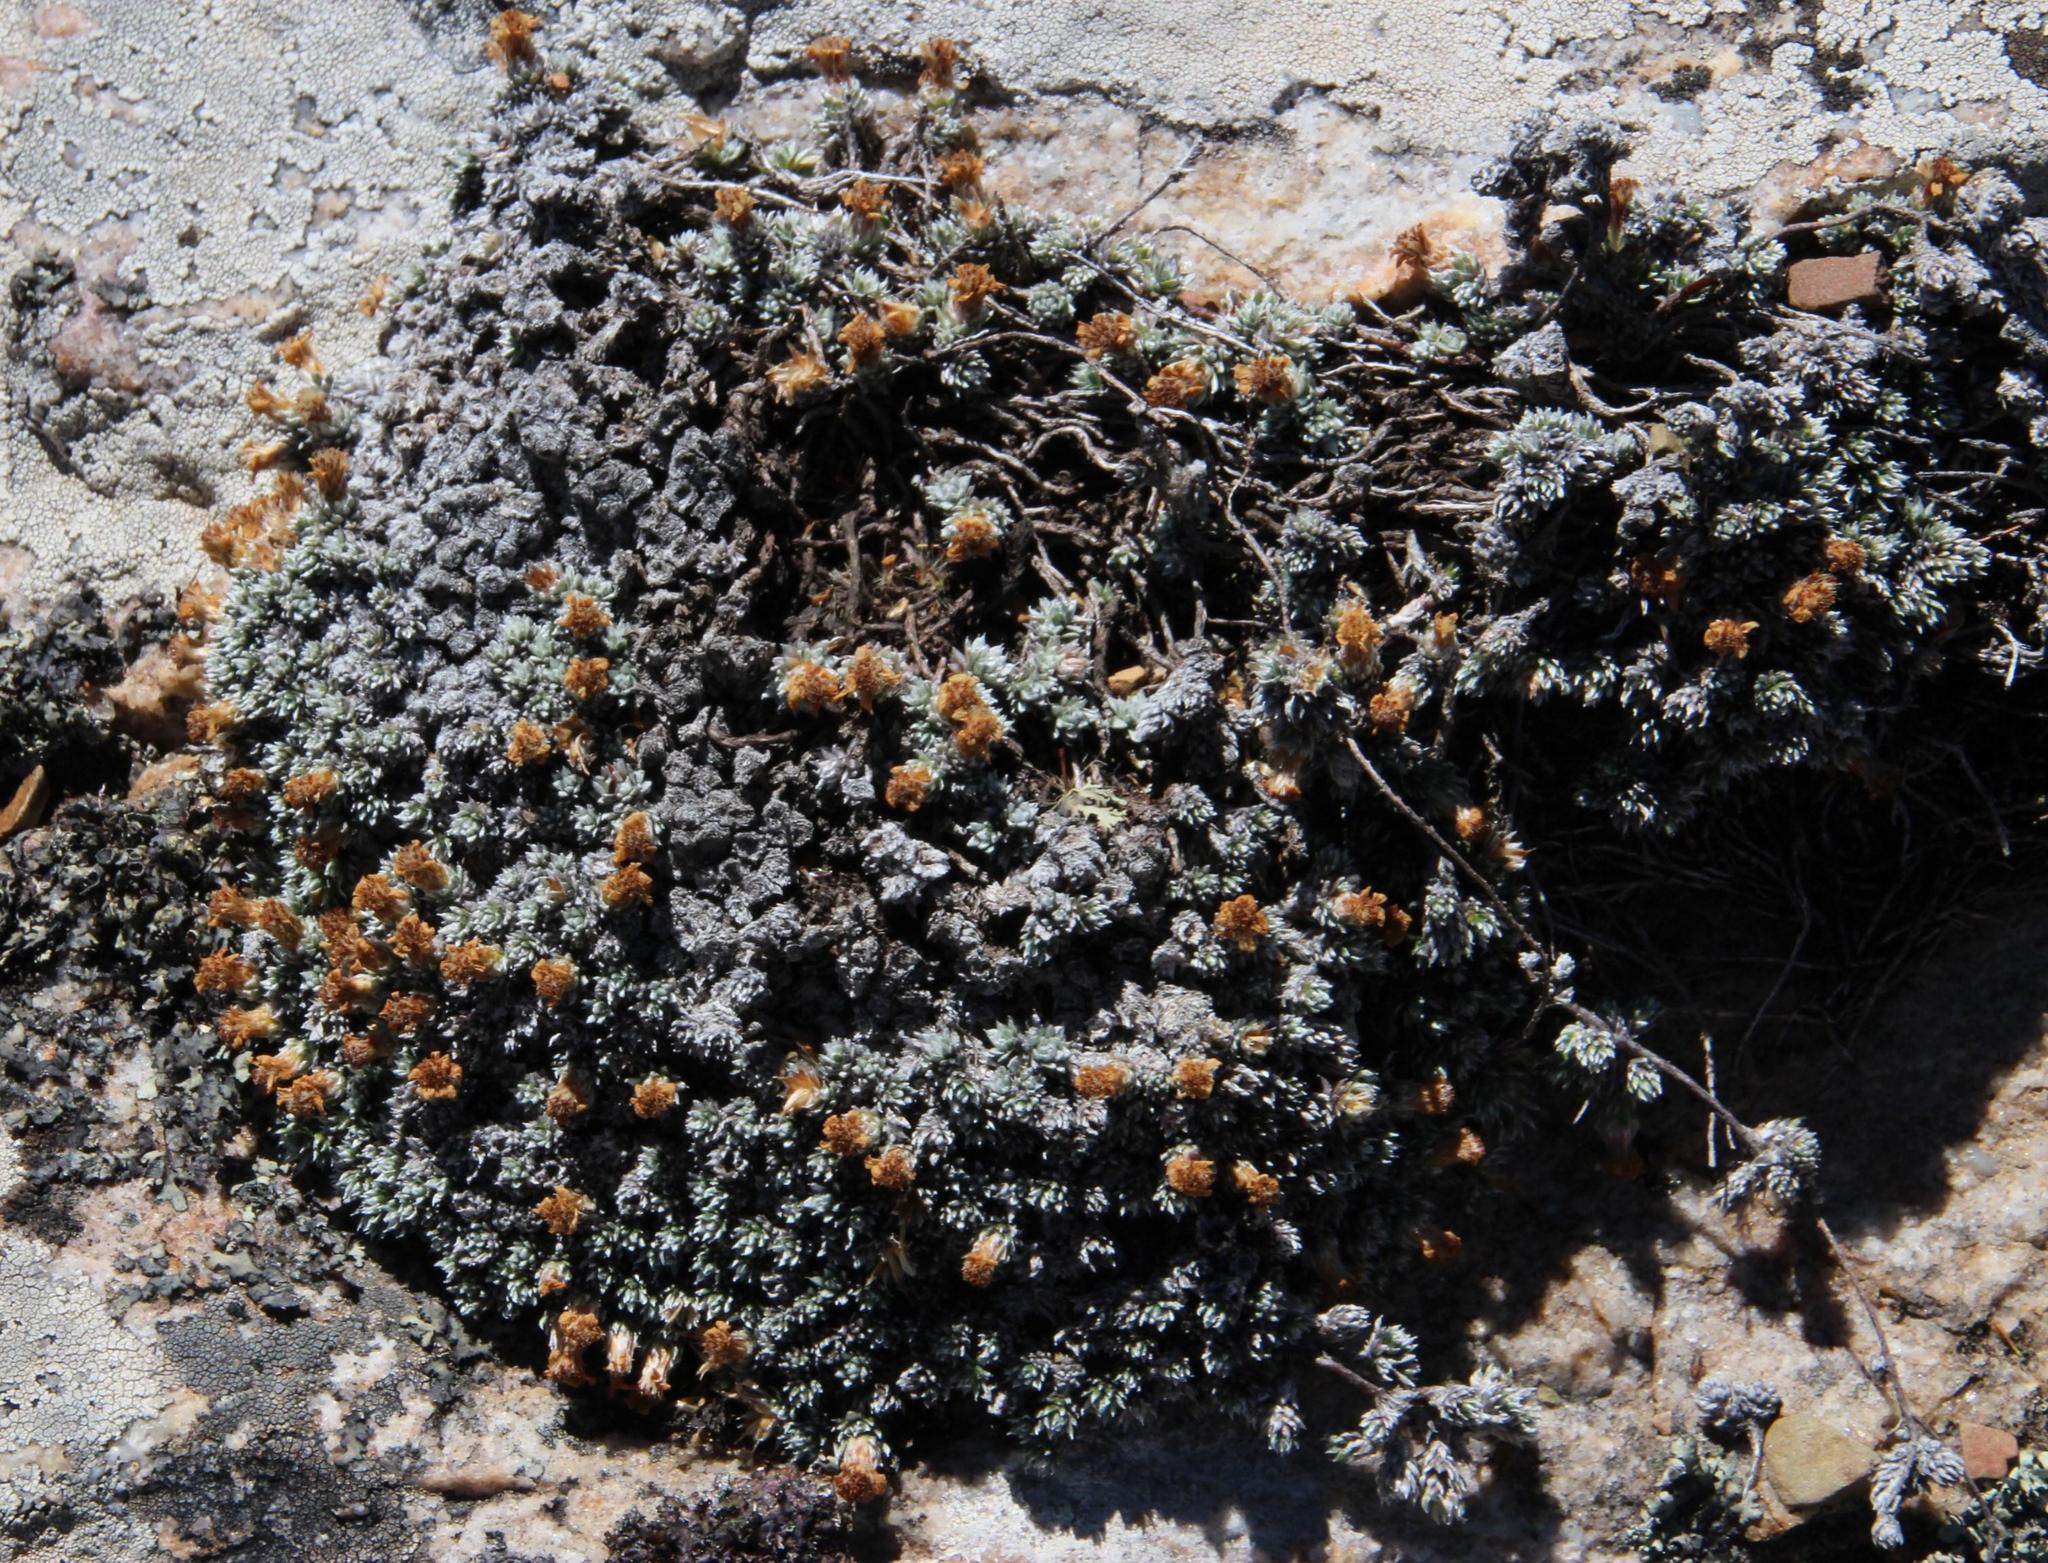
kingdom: Plantae
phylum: Tracheophyta
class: Magnoliopsida
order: Asterales
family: Asteraceae
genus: Muscosomorphe
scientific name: Muscosomorphe aretioides
